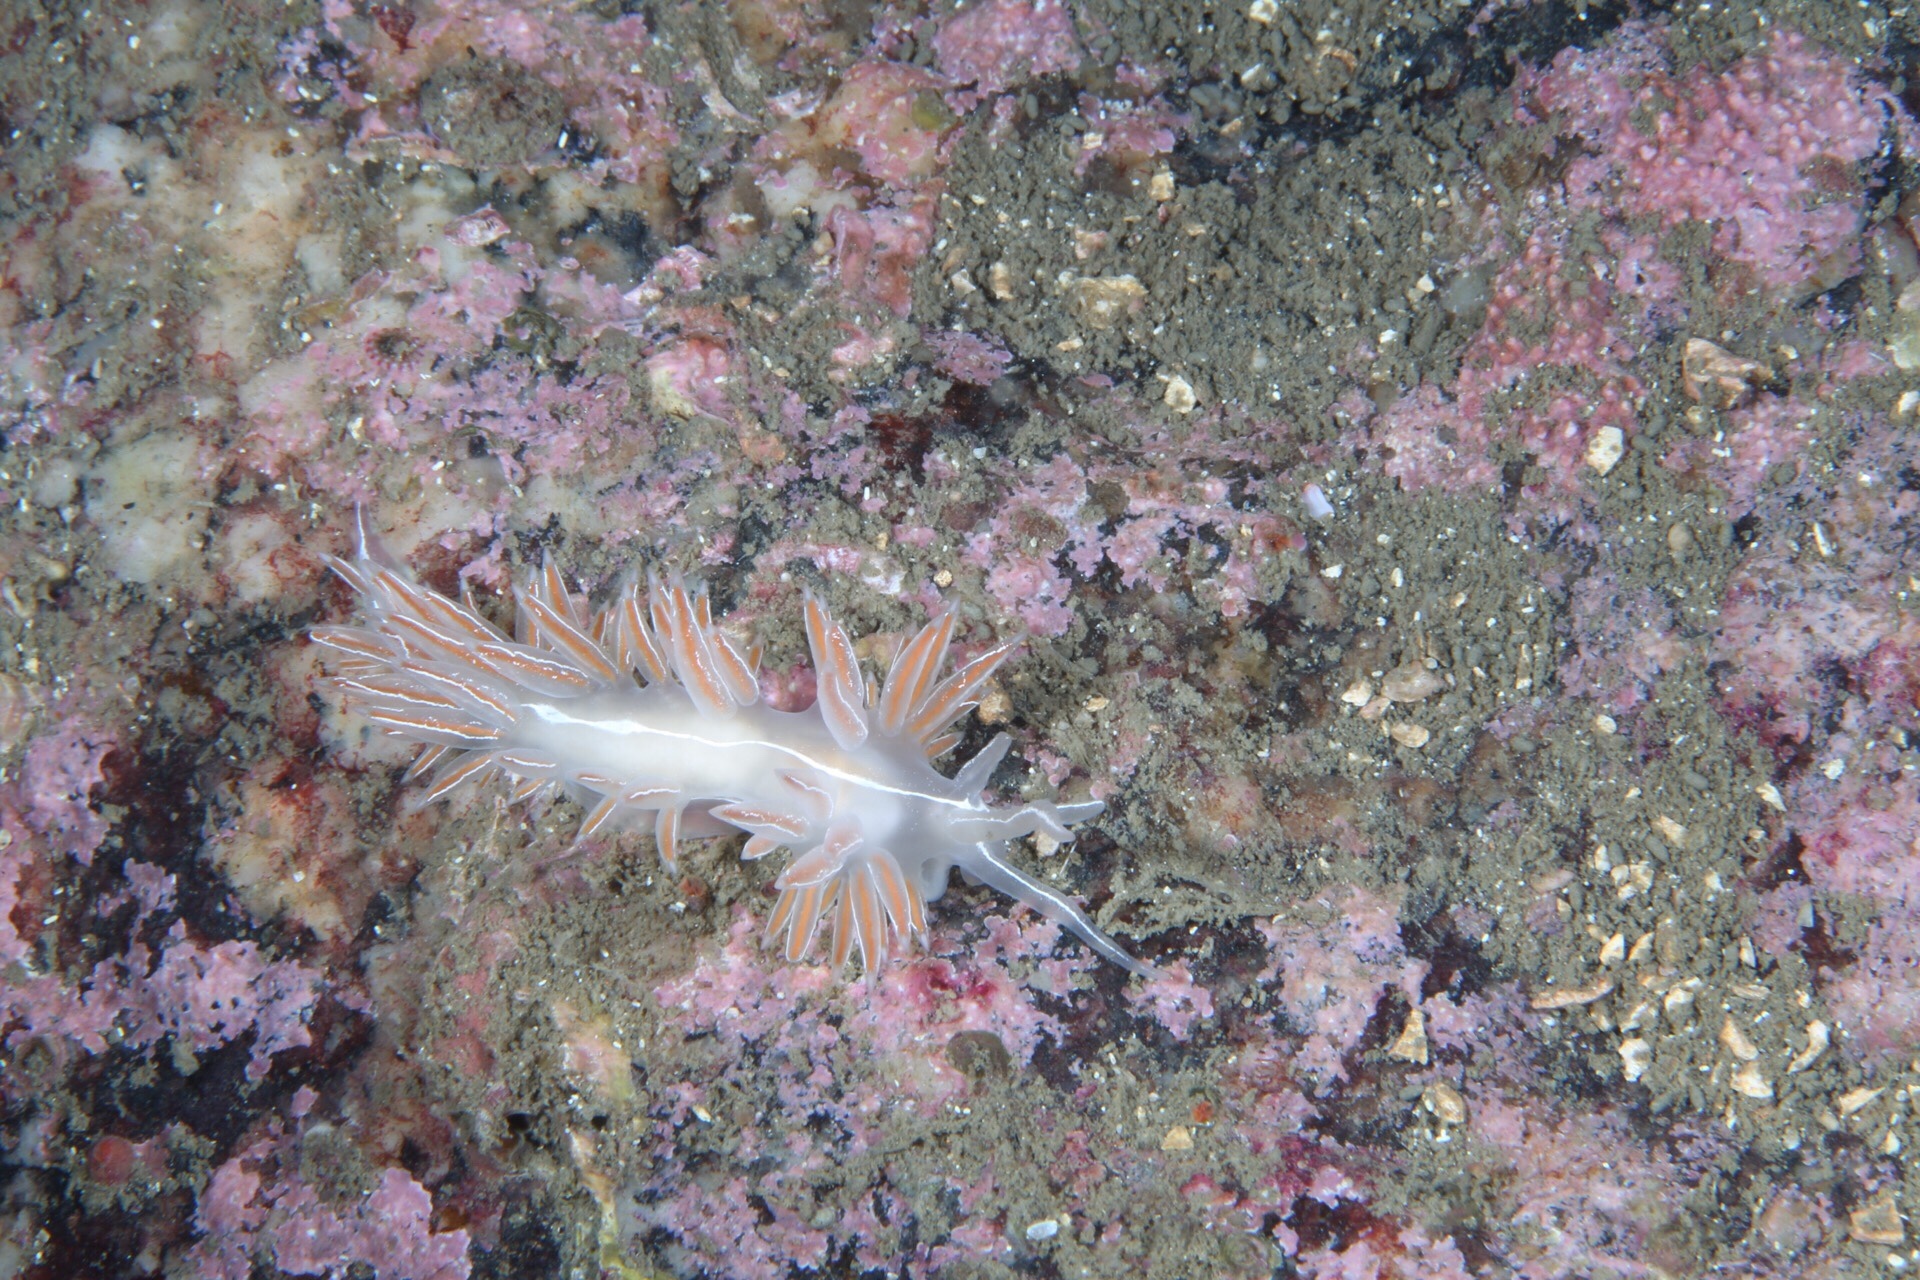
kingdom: Animalia
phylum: Mollusca
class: Gastropoda
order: Nudibranchia
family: Coryphellidae
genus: Coryphella
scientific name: Coryphella chriskaugei
